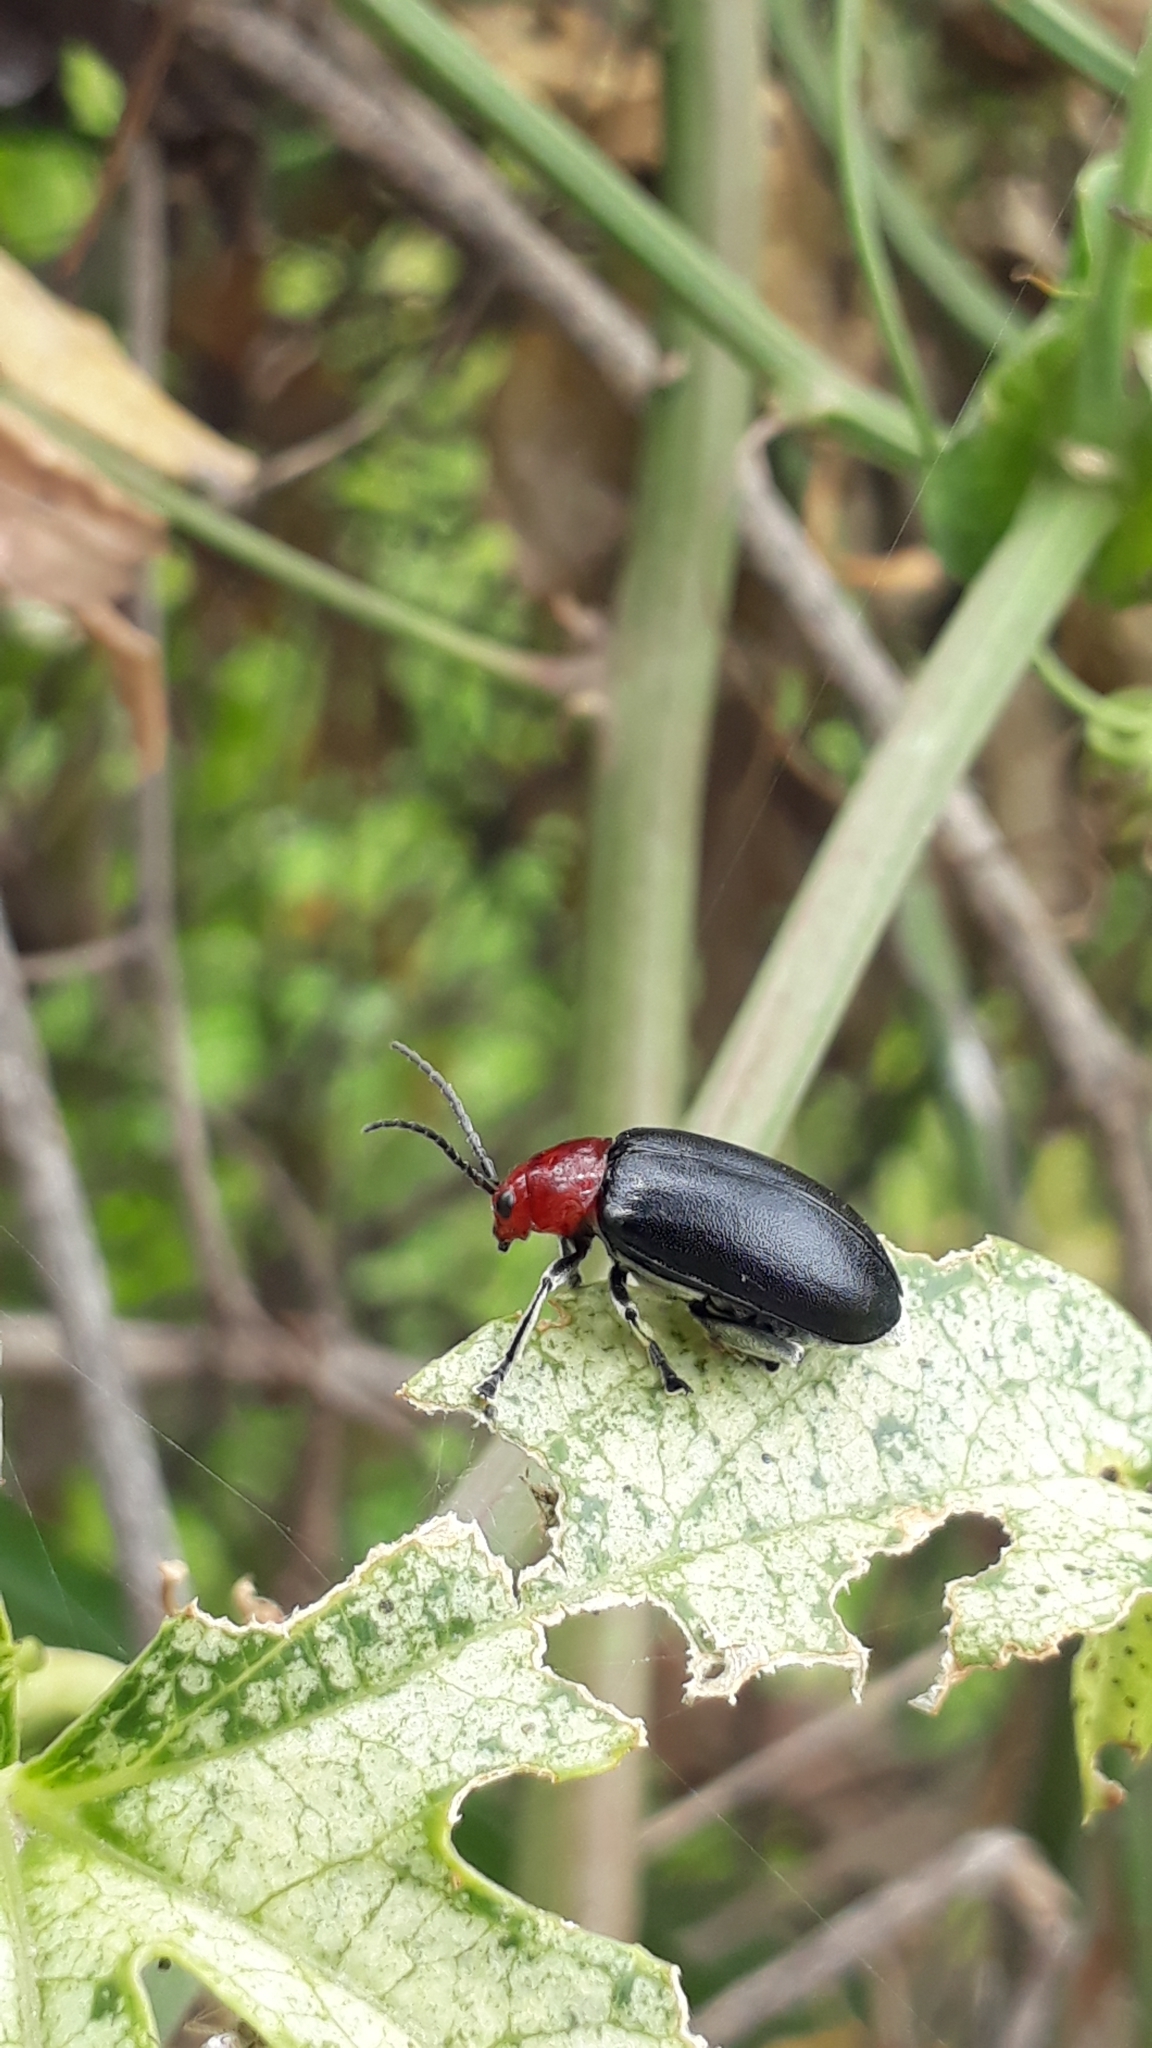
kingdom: Animalia
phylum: Arthropoda
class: Insecta
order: Coleoptera
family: Chrysomelidae
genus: Cacoscelis
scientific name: Cacoscelis
